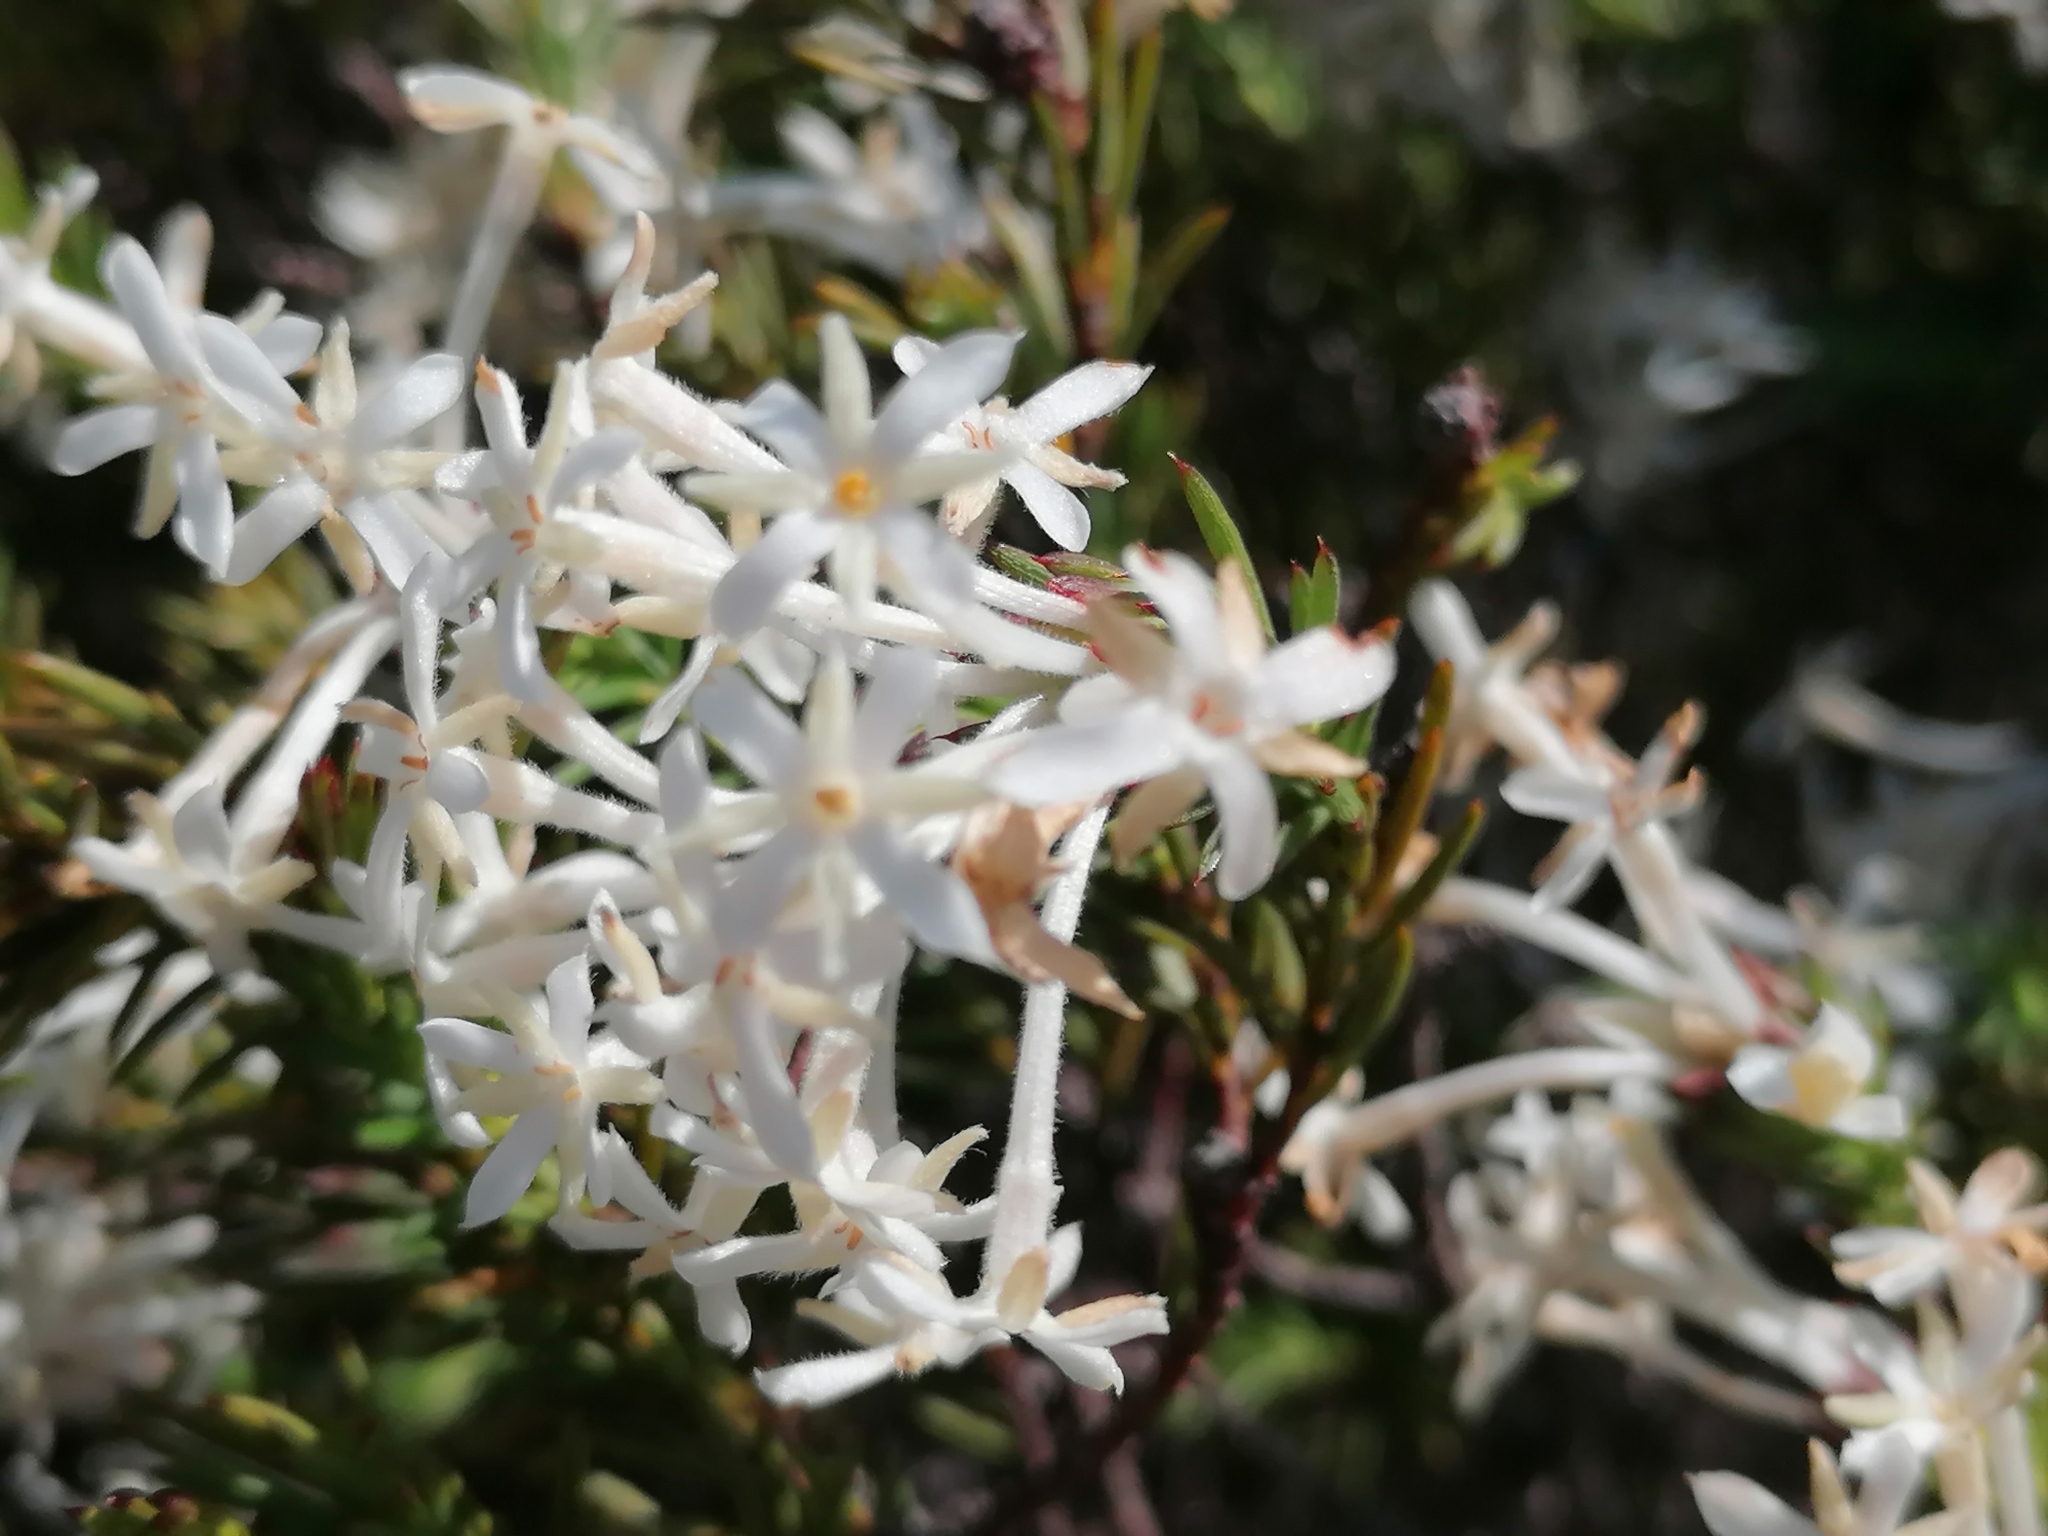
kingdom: Plantae
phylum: Tracheophyta
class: Magnoliopsida
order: Malvales
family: Thymelaeaceae
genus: Gnidia
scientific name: Gnidia pinifolia
